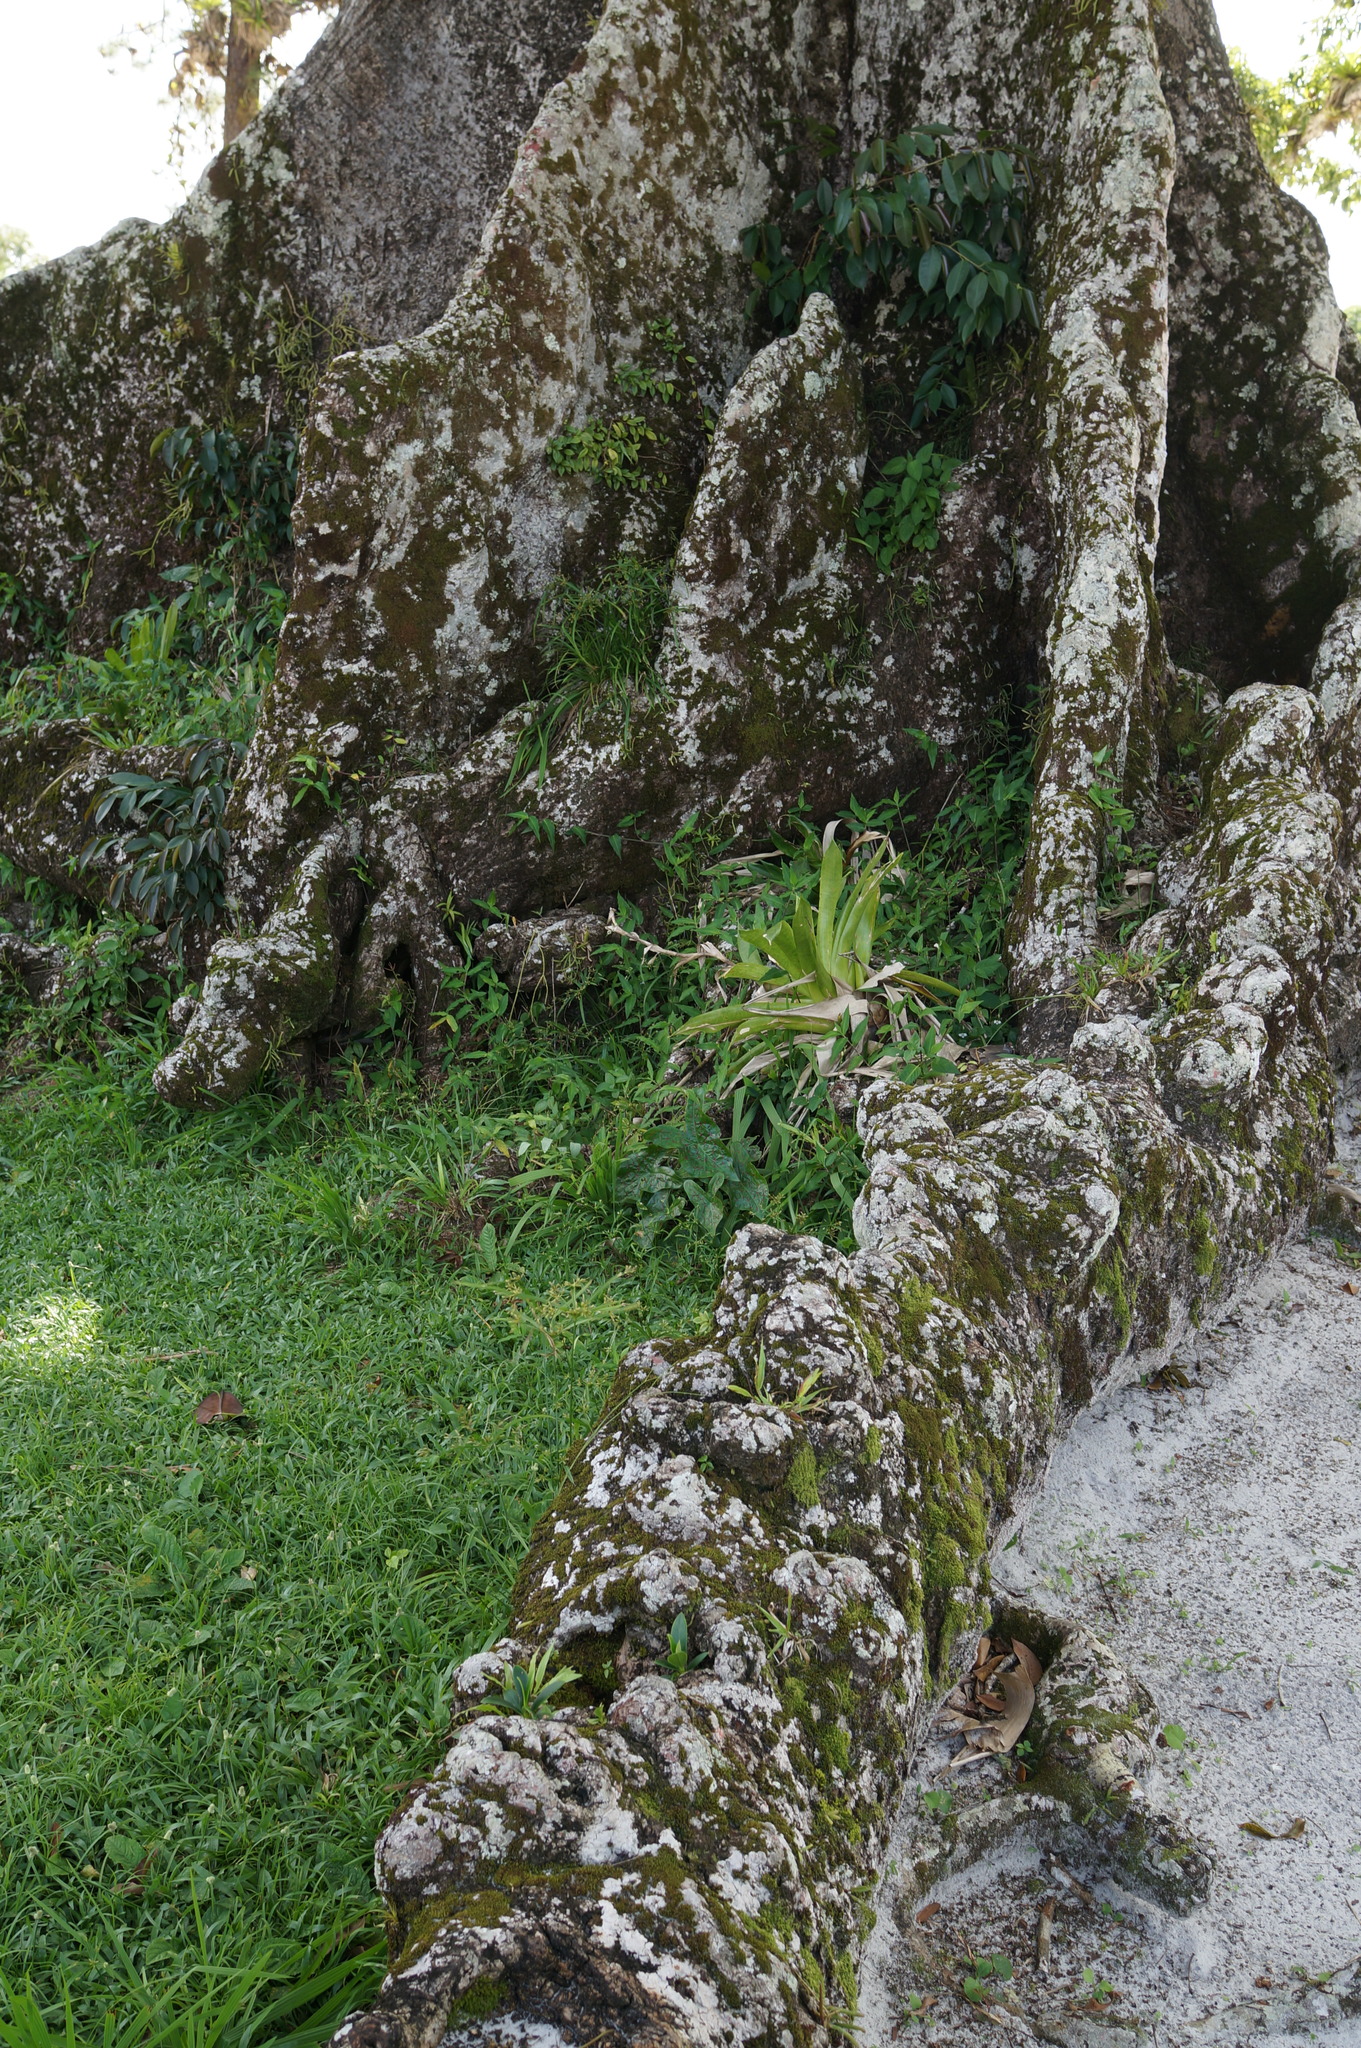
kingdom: Plantae
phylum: Tracheophyta
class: Magnoliopsida
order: Malvales
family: Malvaceae
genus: Ceiba
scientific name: Ceiba pentandra
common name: Kapok
